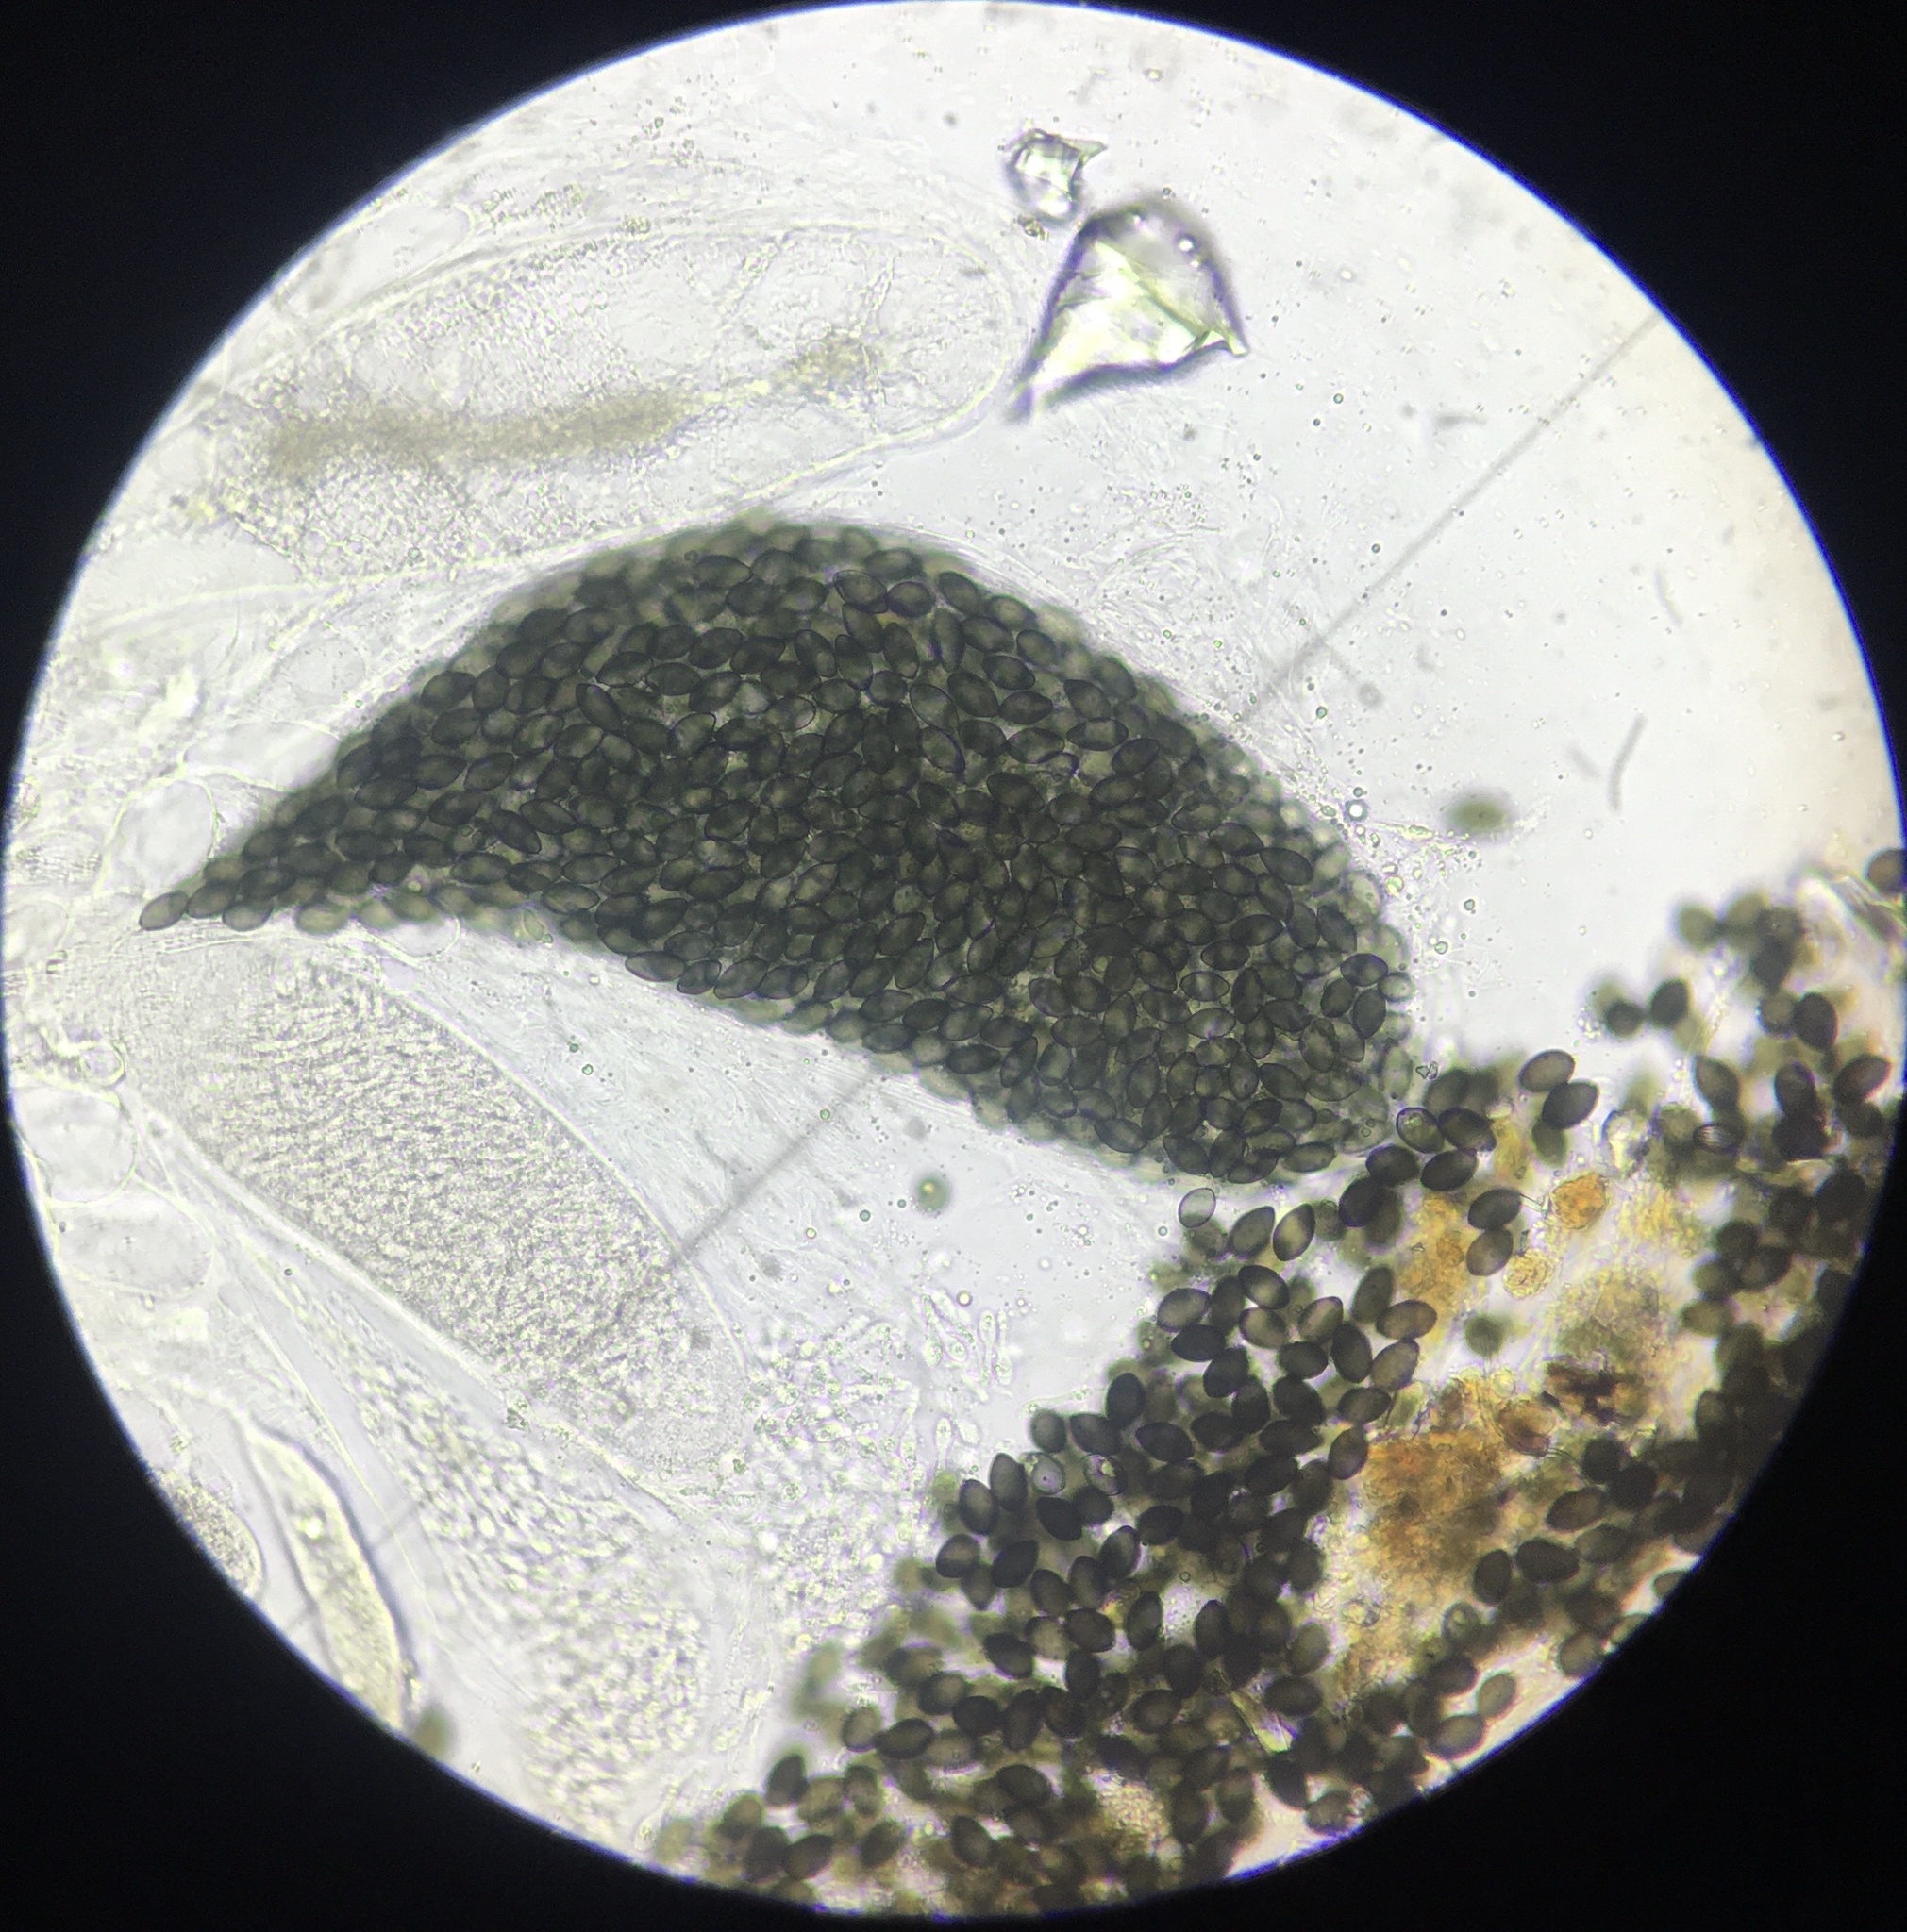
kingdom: Fungi
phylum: Ascomycota
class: Sordariomycetes
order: Sordariales
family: Podosporaceae
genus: Podospora
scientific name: Podospora araneosa
